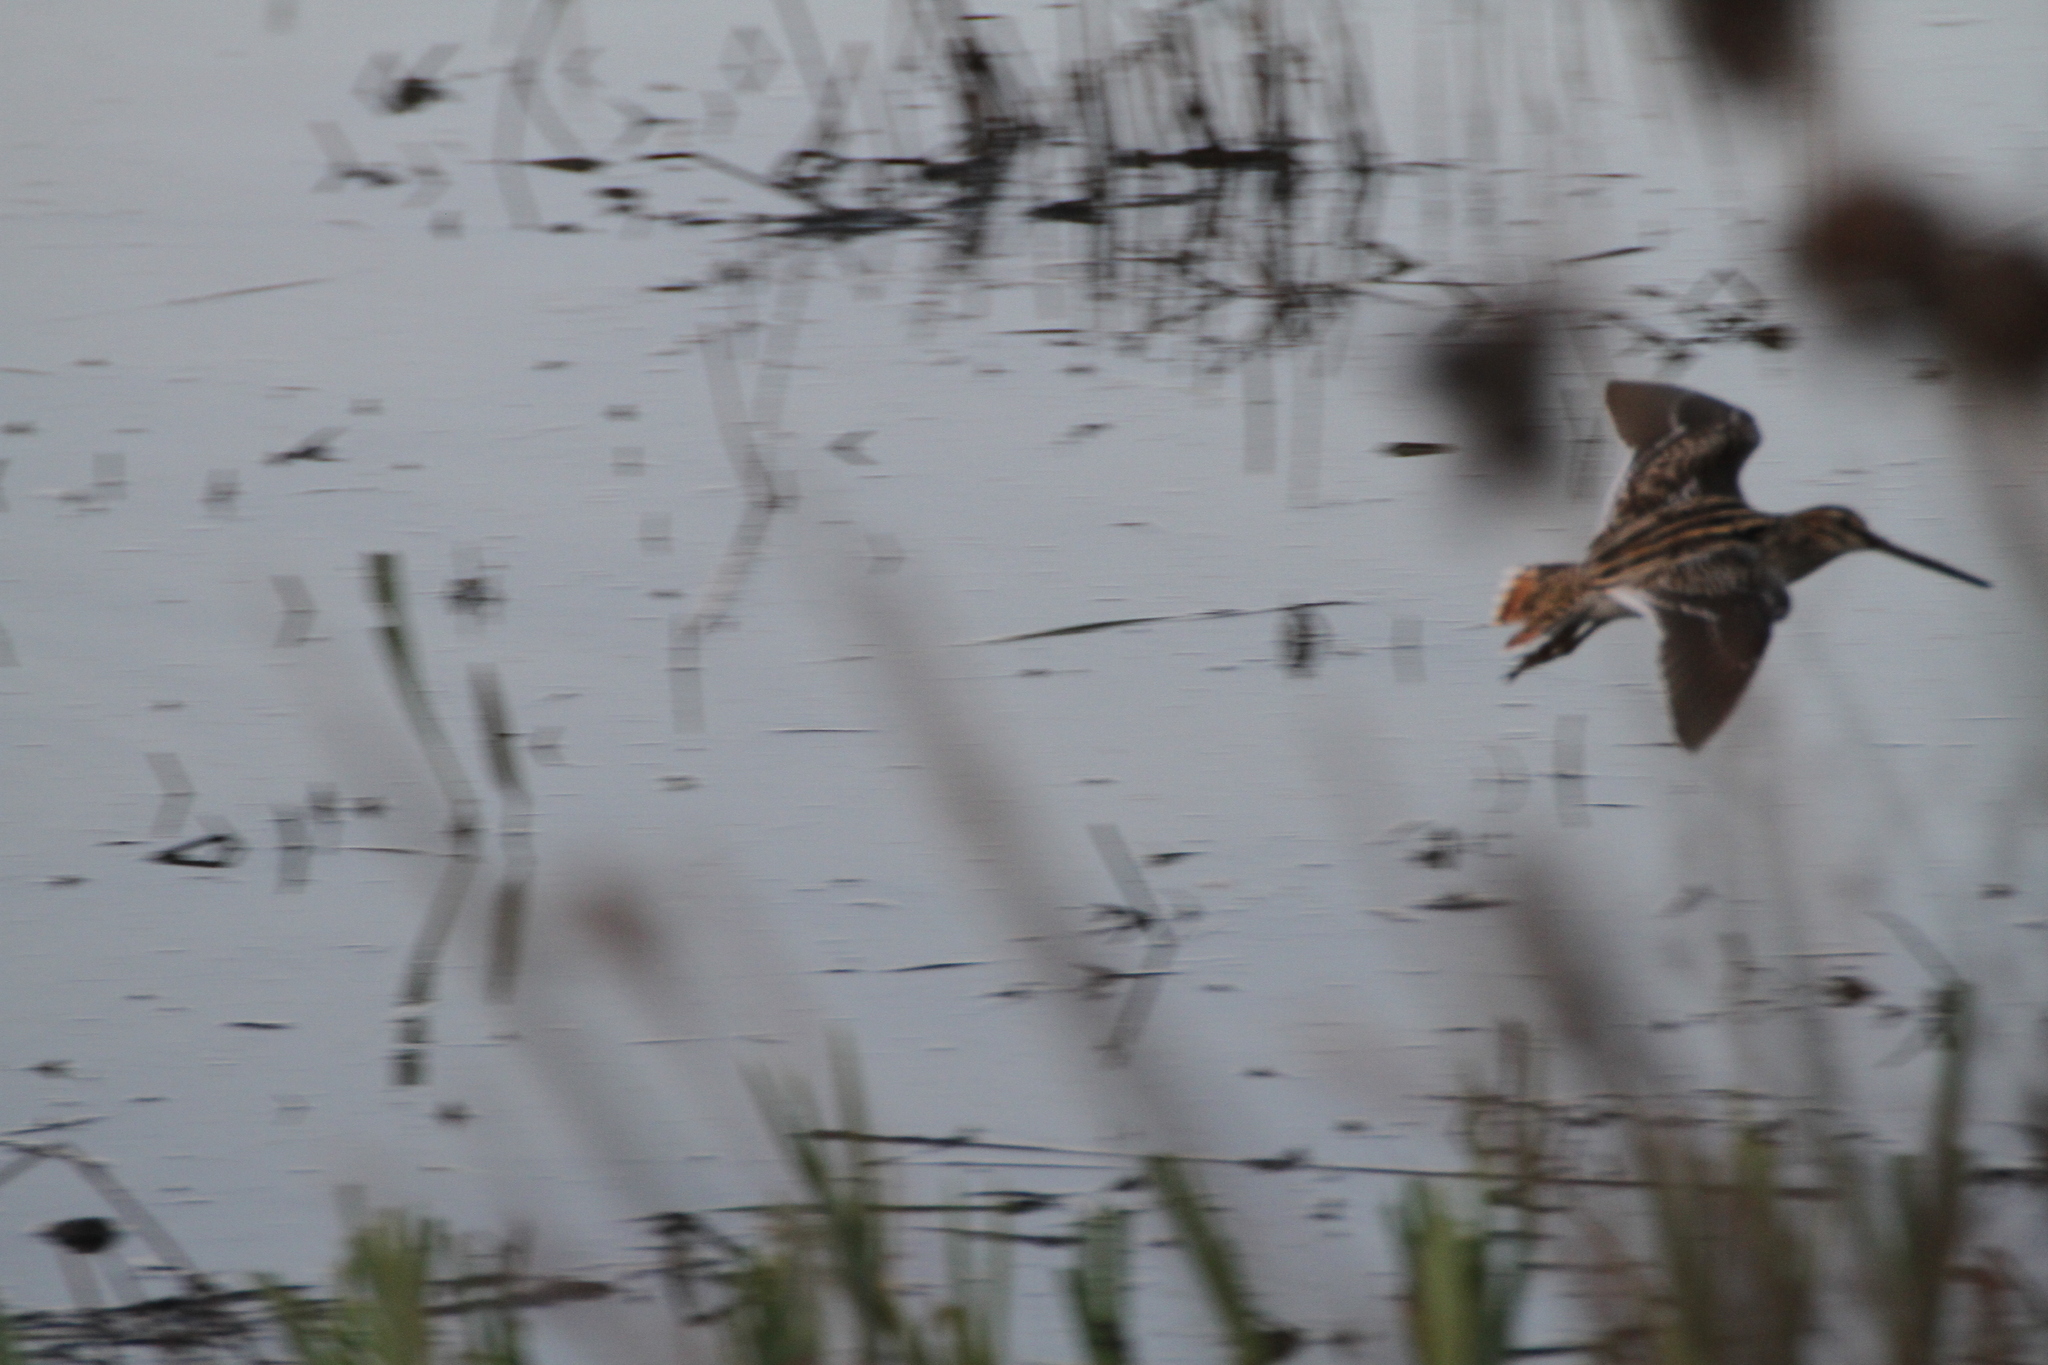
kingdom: Animalia
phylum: Chordata
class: Aves
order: Charadriiformes
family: Scolopacidae
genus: Gallinago
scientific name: Gallinago gallinago
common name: Common snipe
